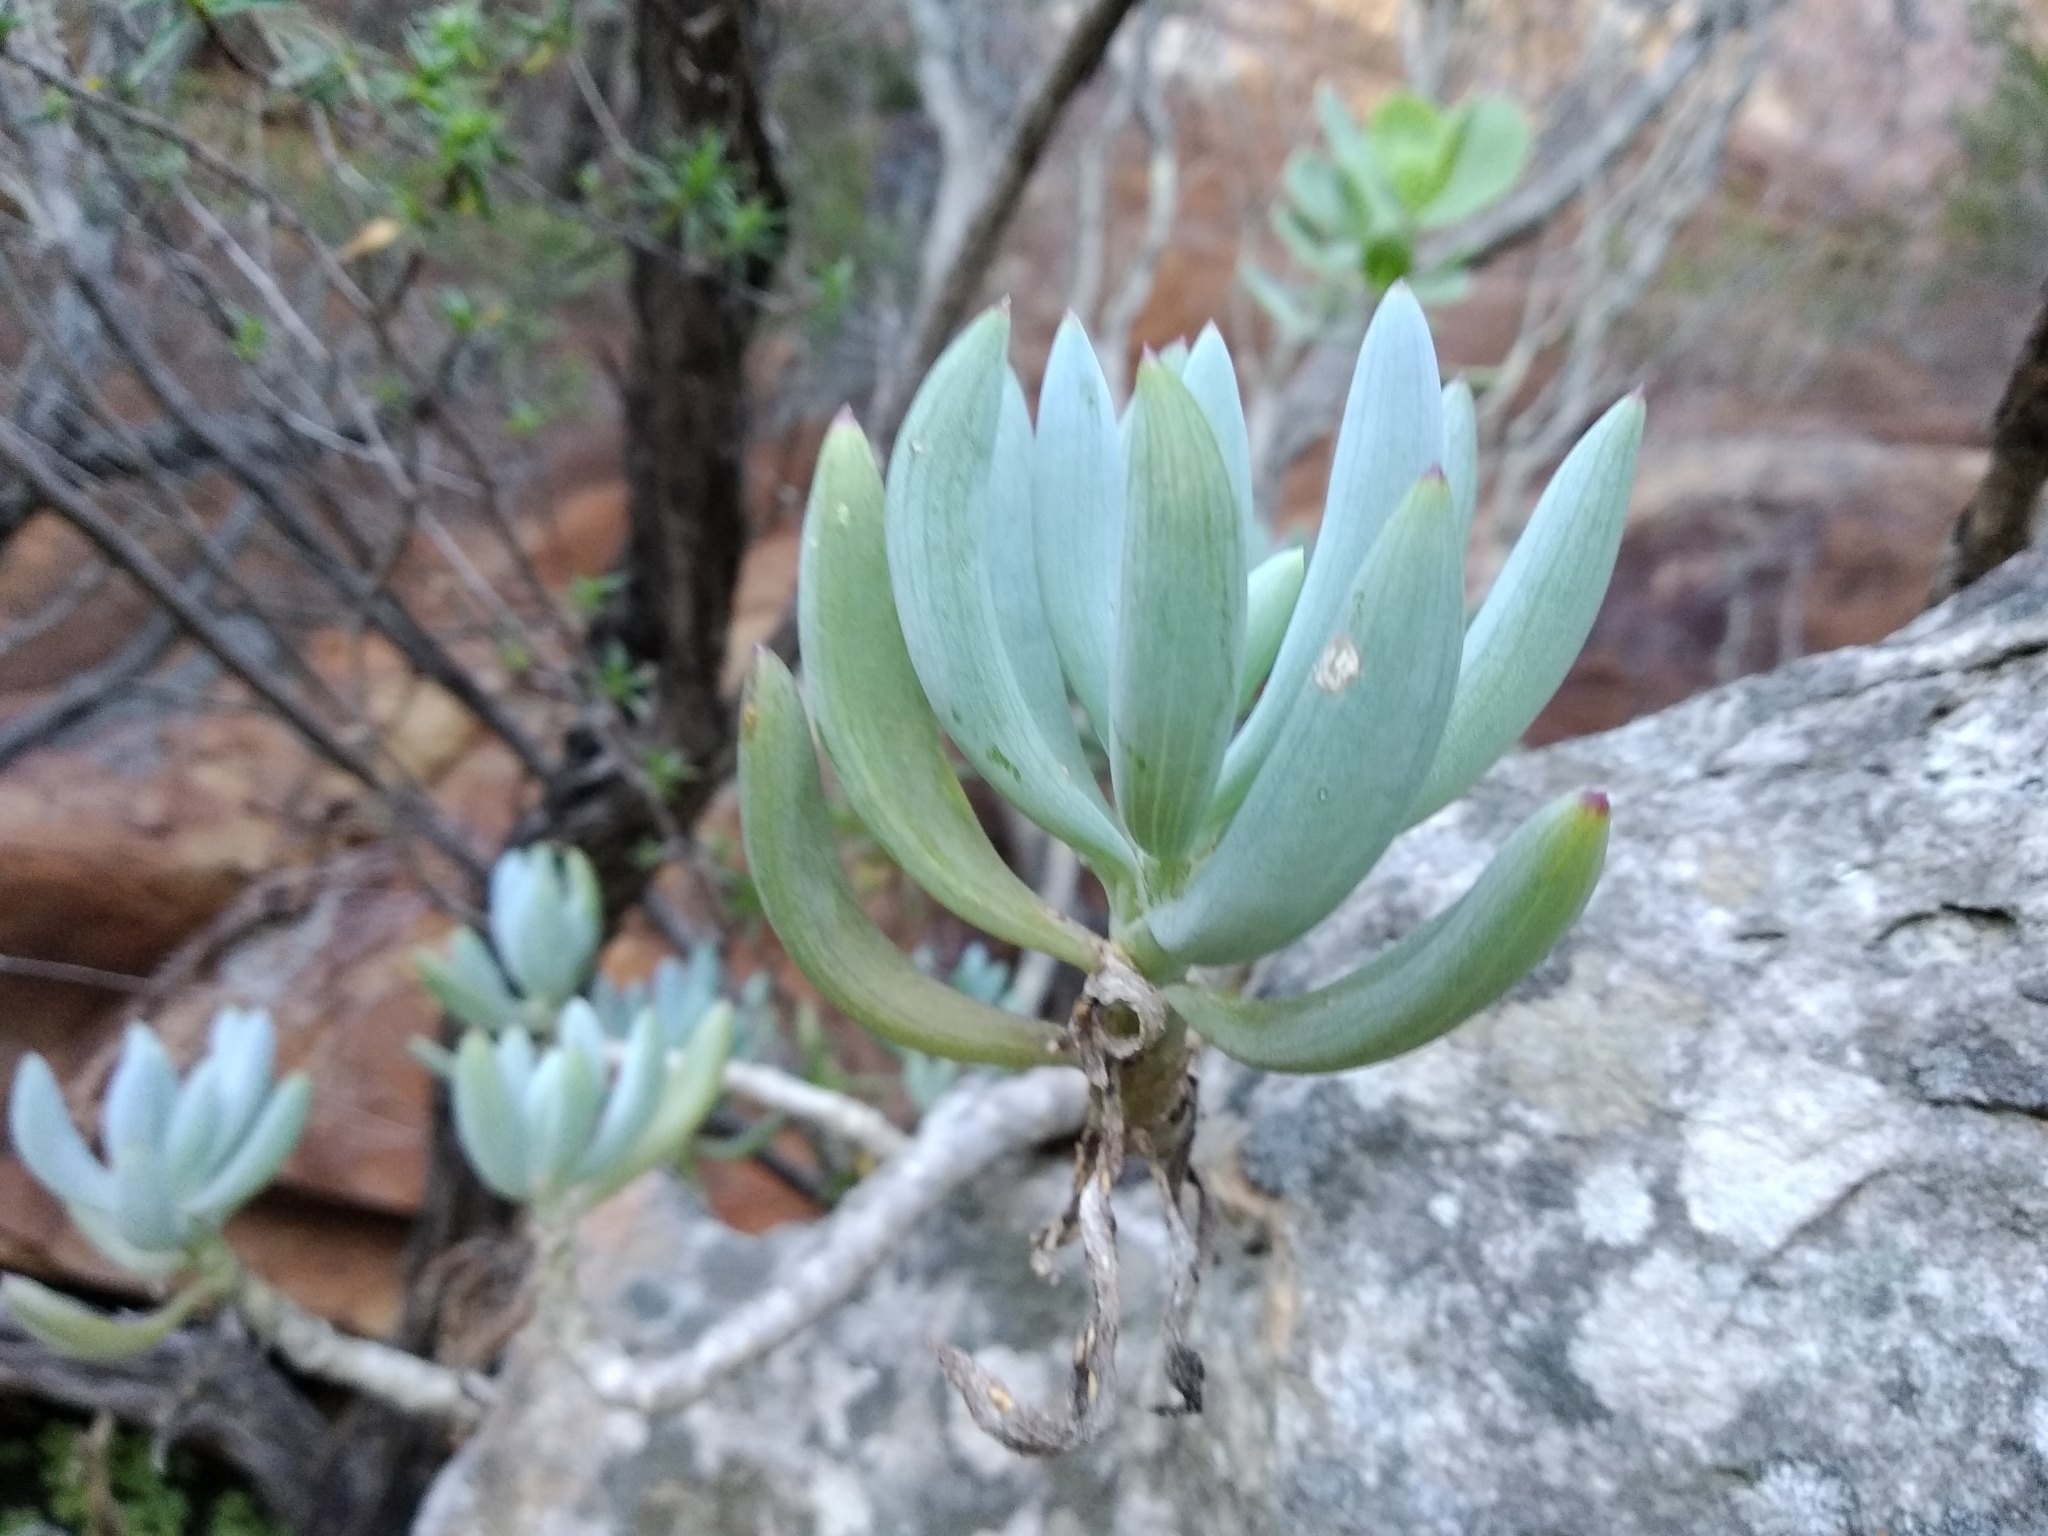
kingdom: Plantae
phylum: Tracheophyta
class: Magnoliopsida
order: Asterales
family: Asteraceae
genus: Curio
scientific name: Curio crassulifolius
